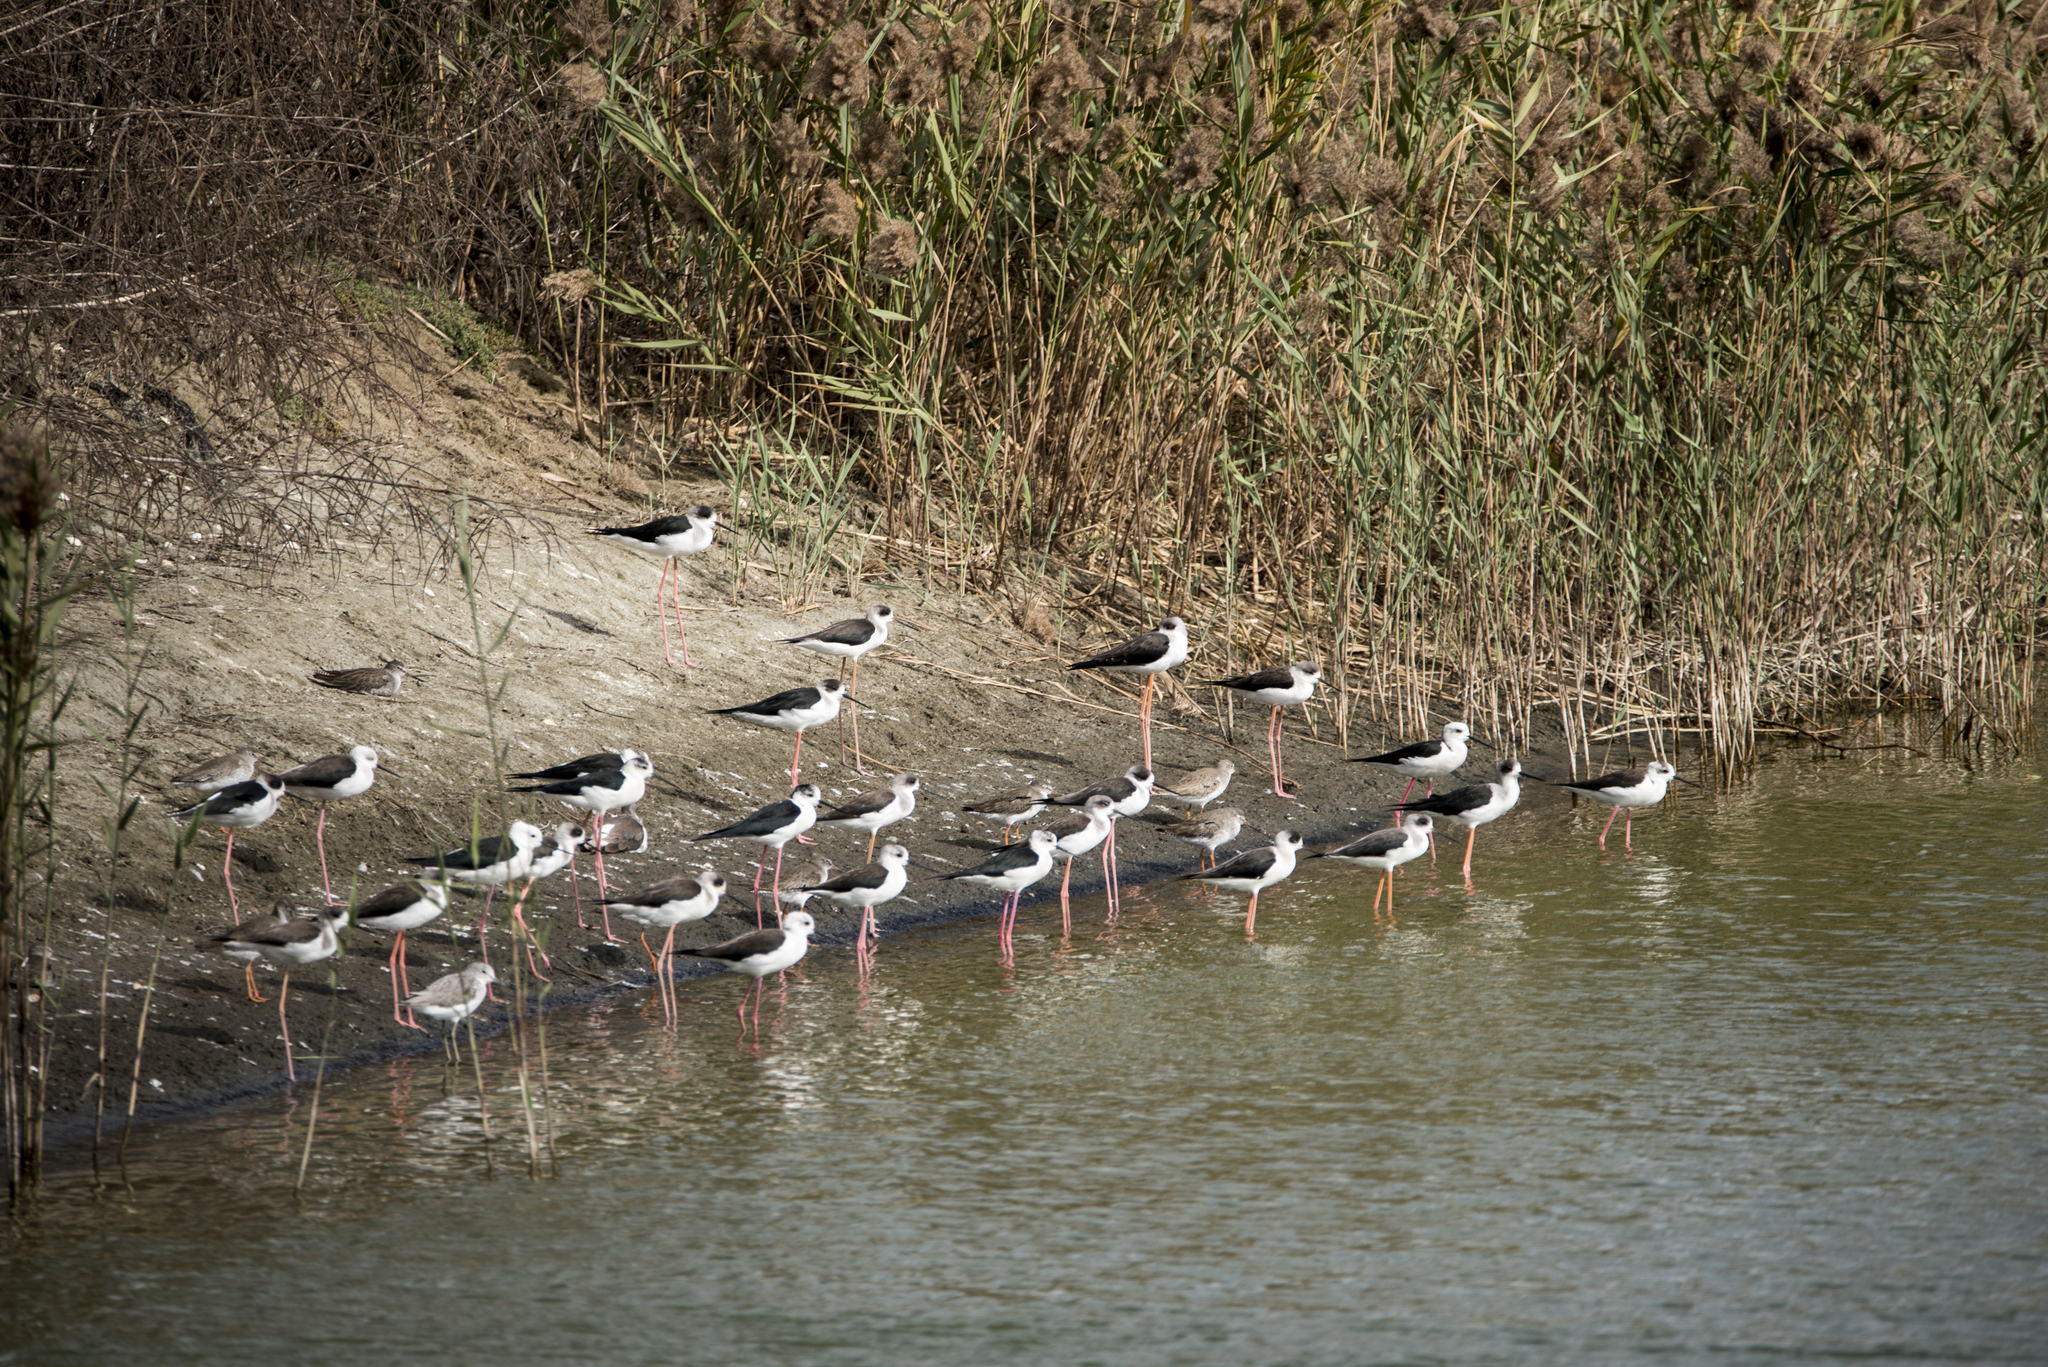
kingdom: Animalia
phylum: Chordata
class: Aves
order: Charadriiformes
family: Recurvirostridae
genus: Himantopus
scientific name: Himantopus himantopus
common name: Black-winged stilt
